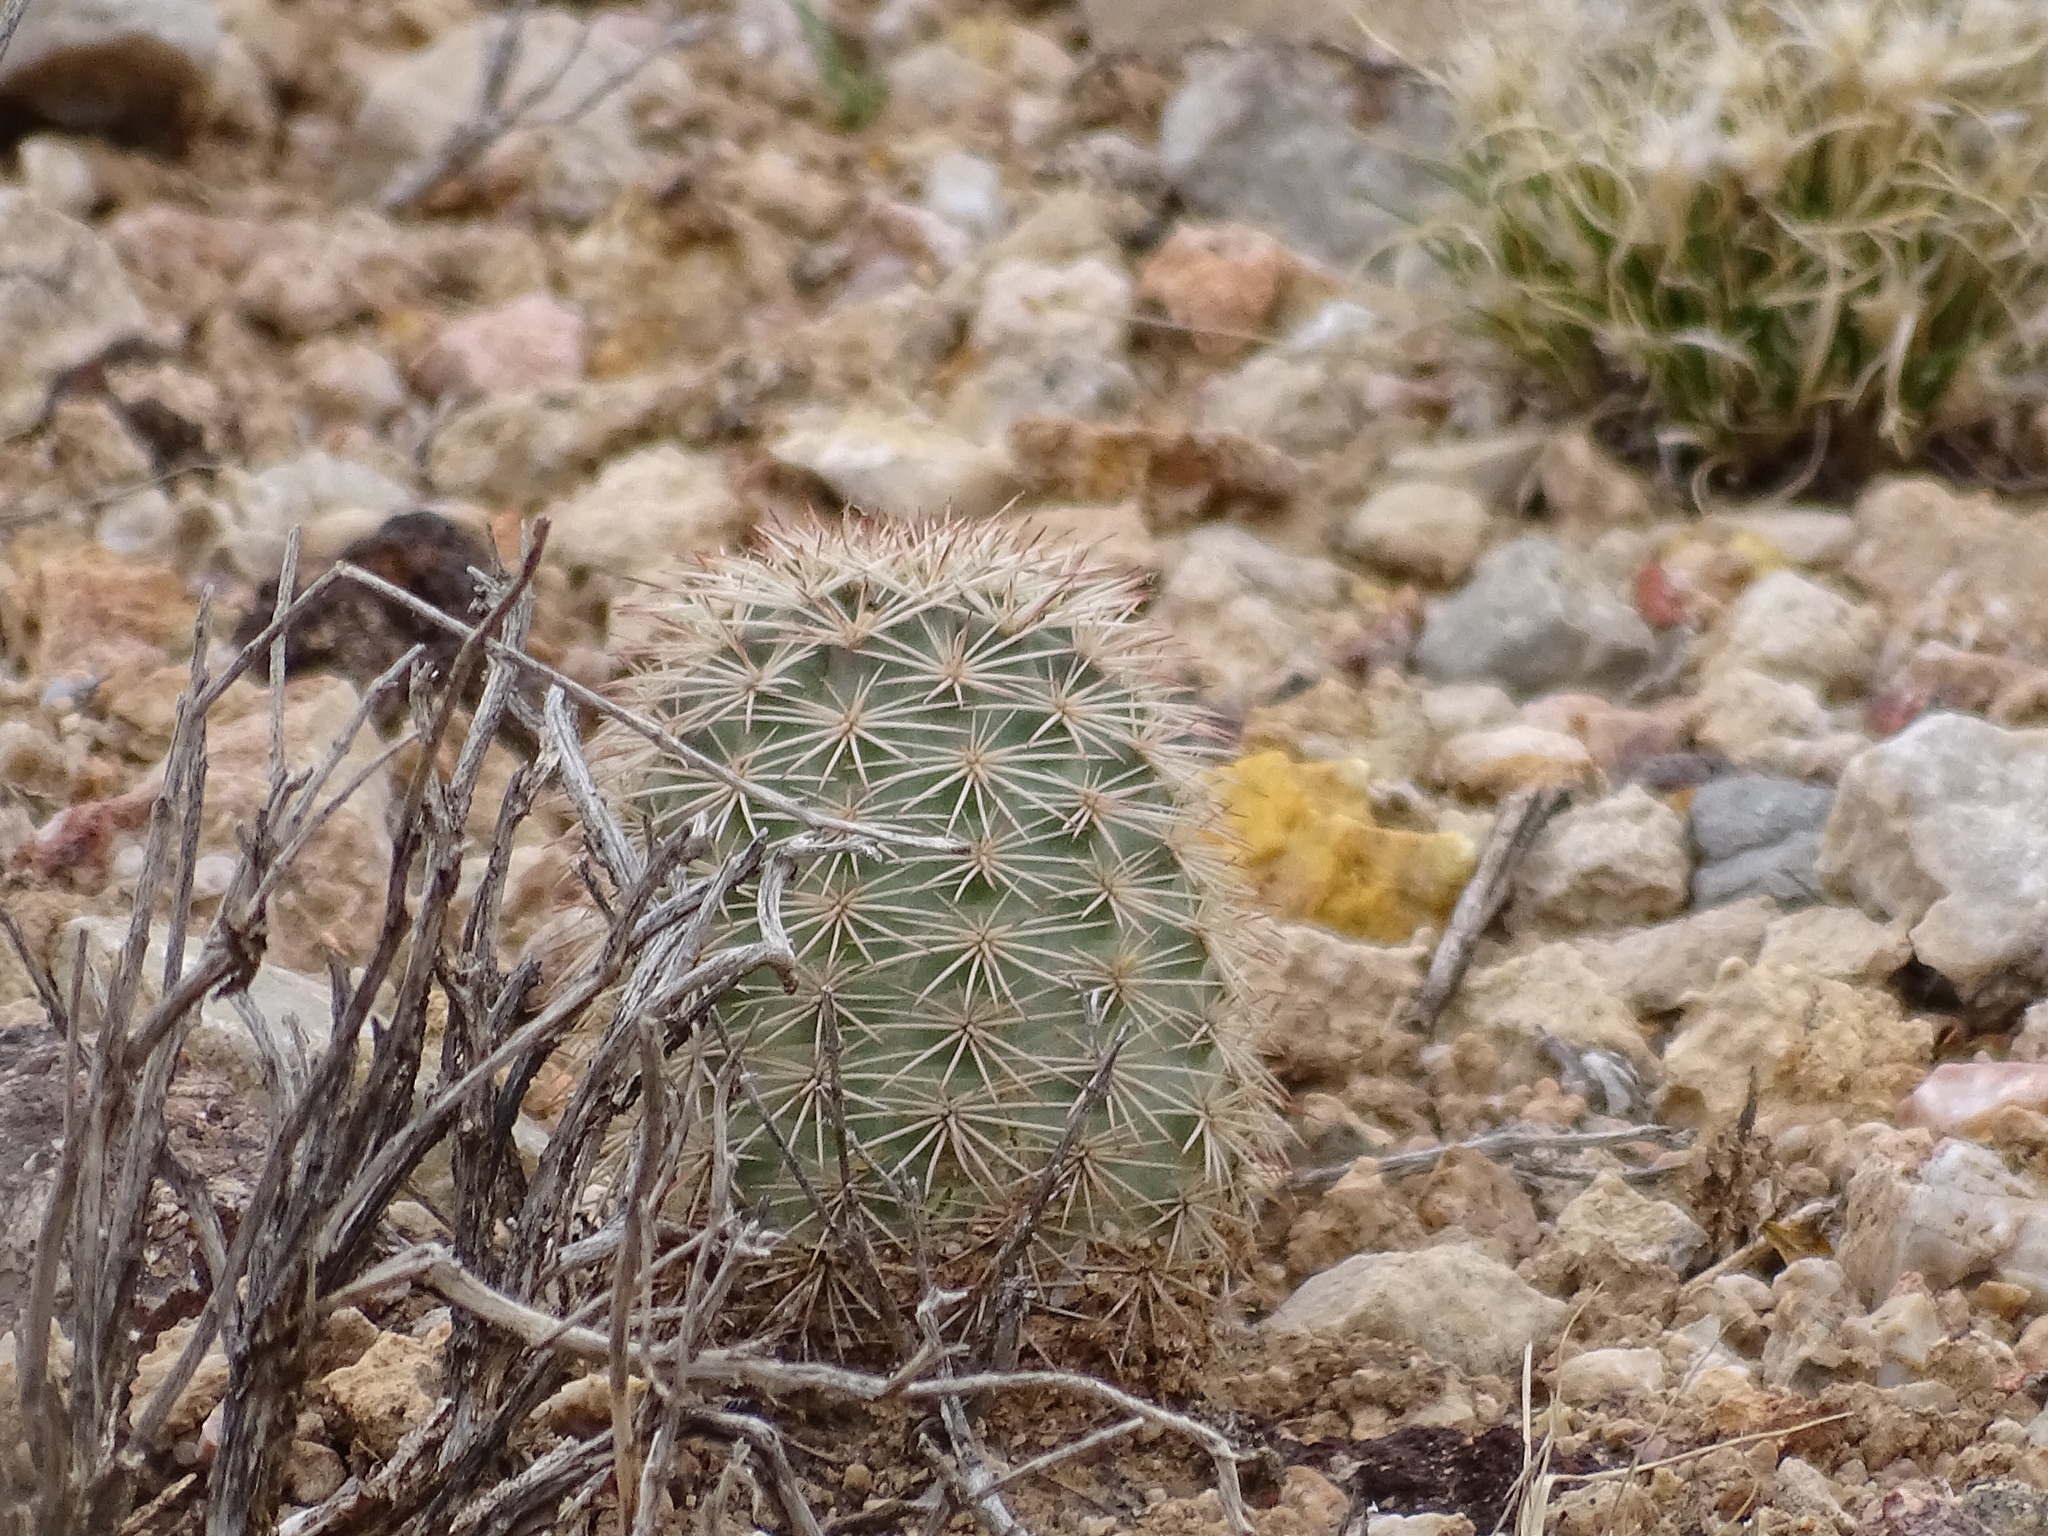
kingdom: Plantae
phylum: Tracheophyta
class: Magnoliopsida
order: Caryophyllales
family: Cactaceae
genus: Echinocereus
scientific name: Echinocereus roetteri
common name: Lloyd's hedgehog cactus
